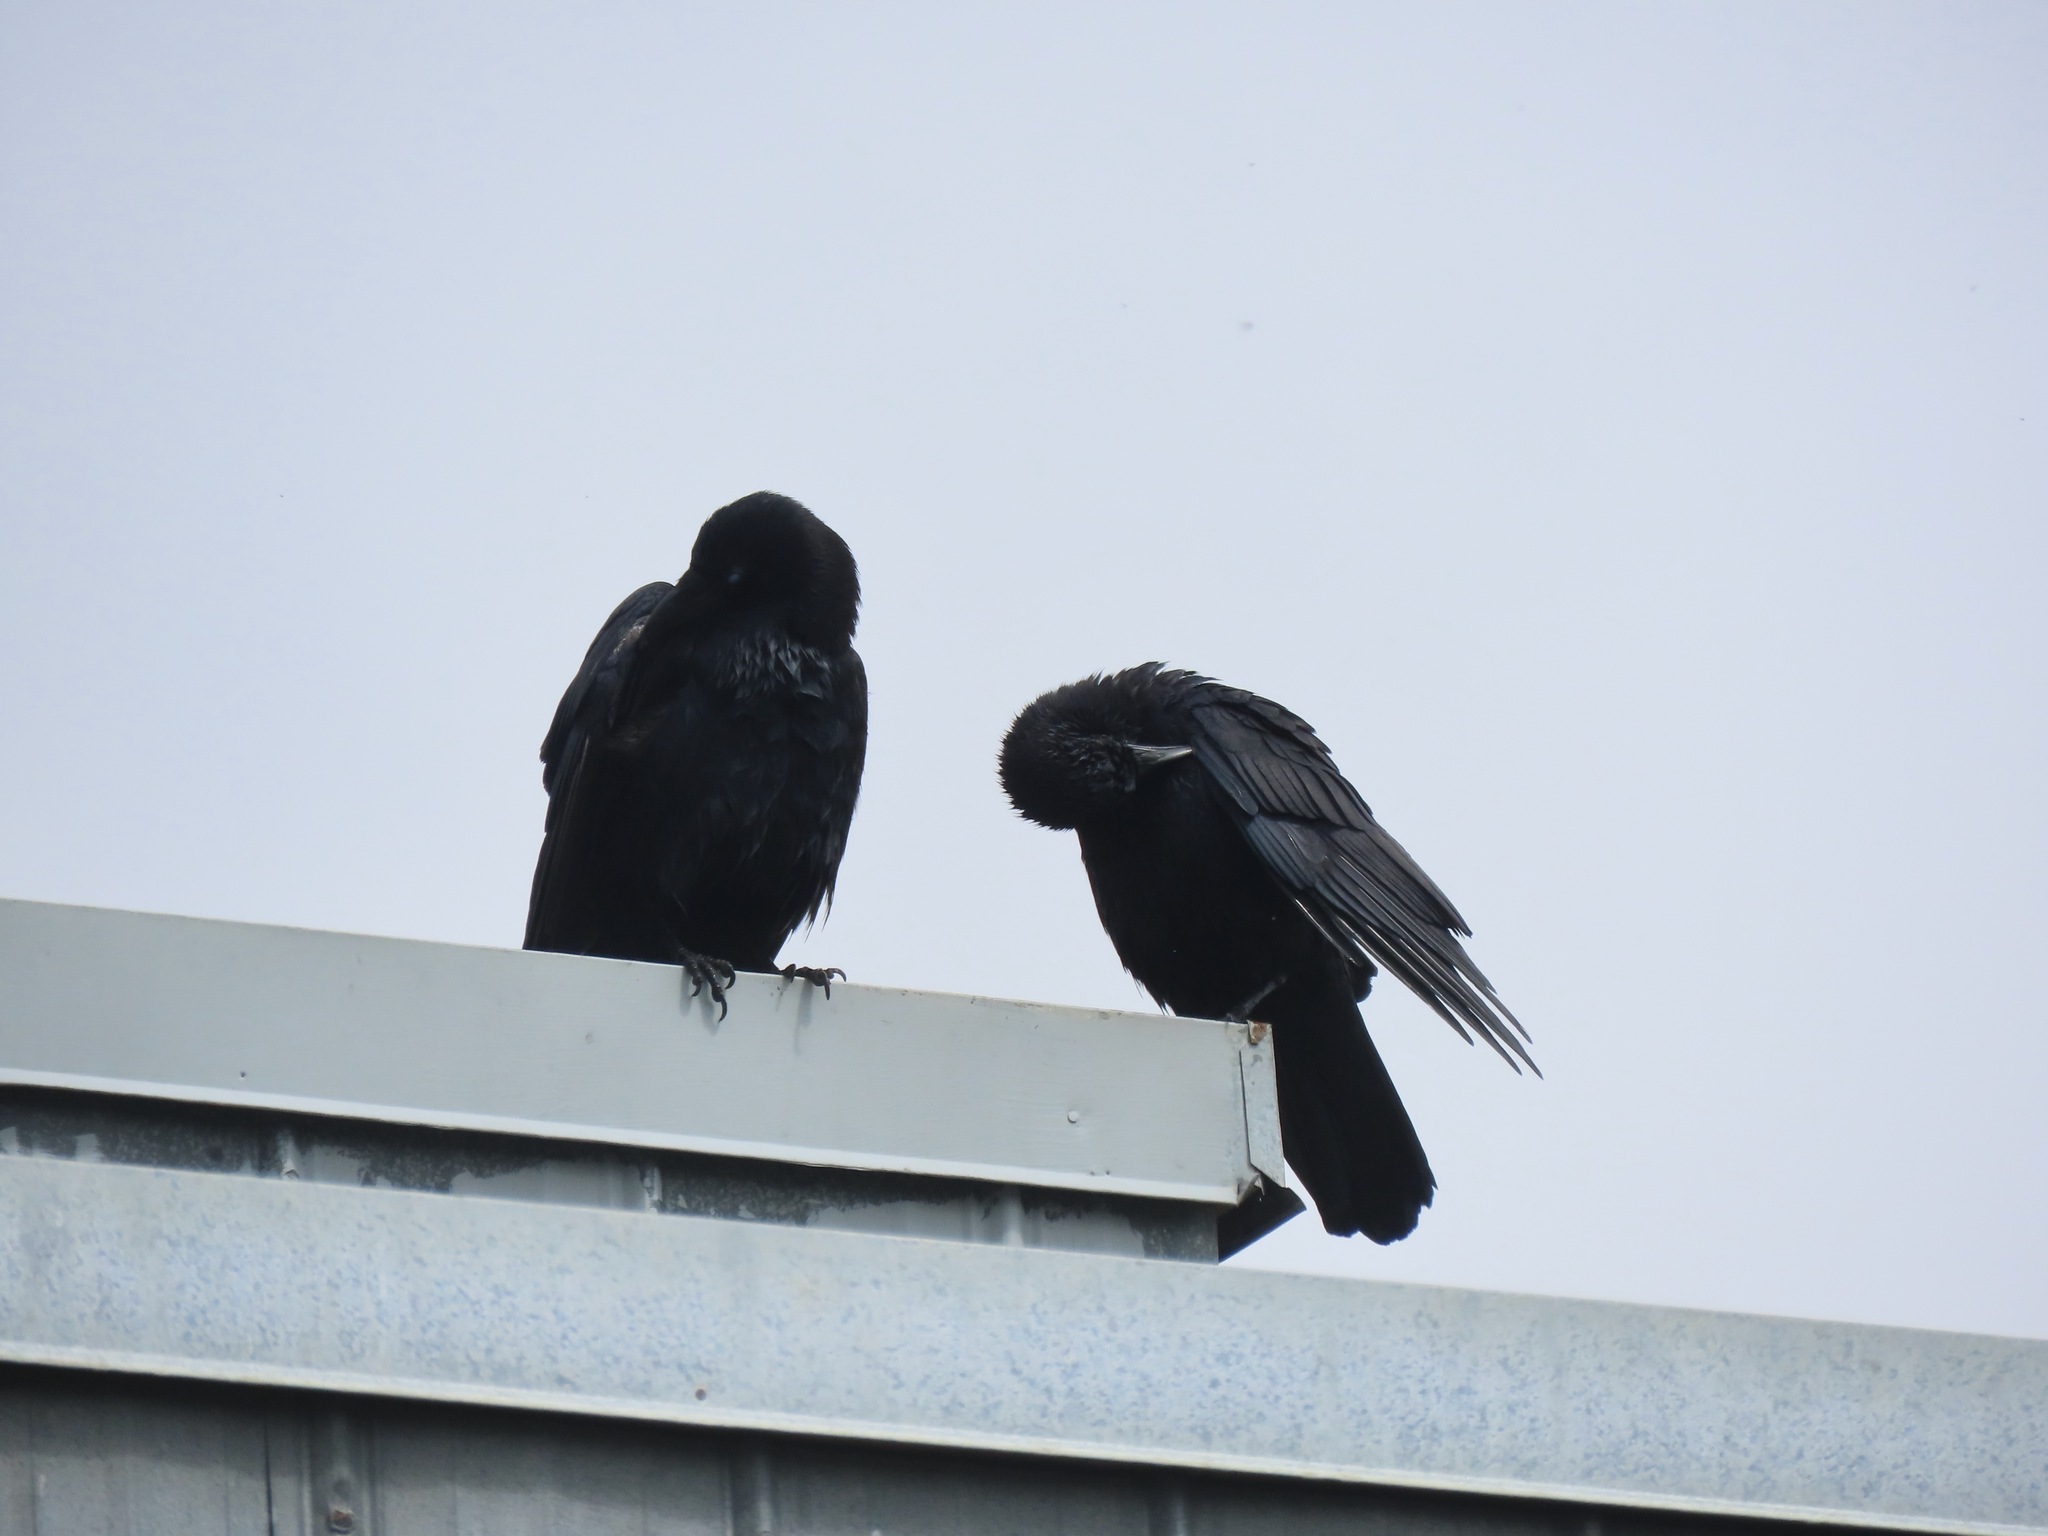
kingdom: Animalia
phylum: Chordata
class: Aves
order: Passeriformes
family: Corvidae
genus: Corvus
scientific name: Corvus brachyrhynchos
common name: American crow
